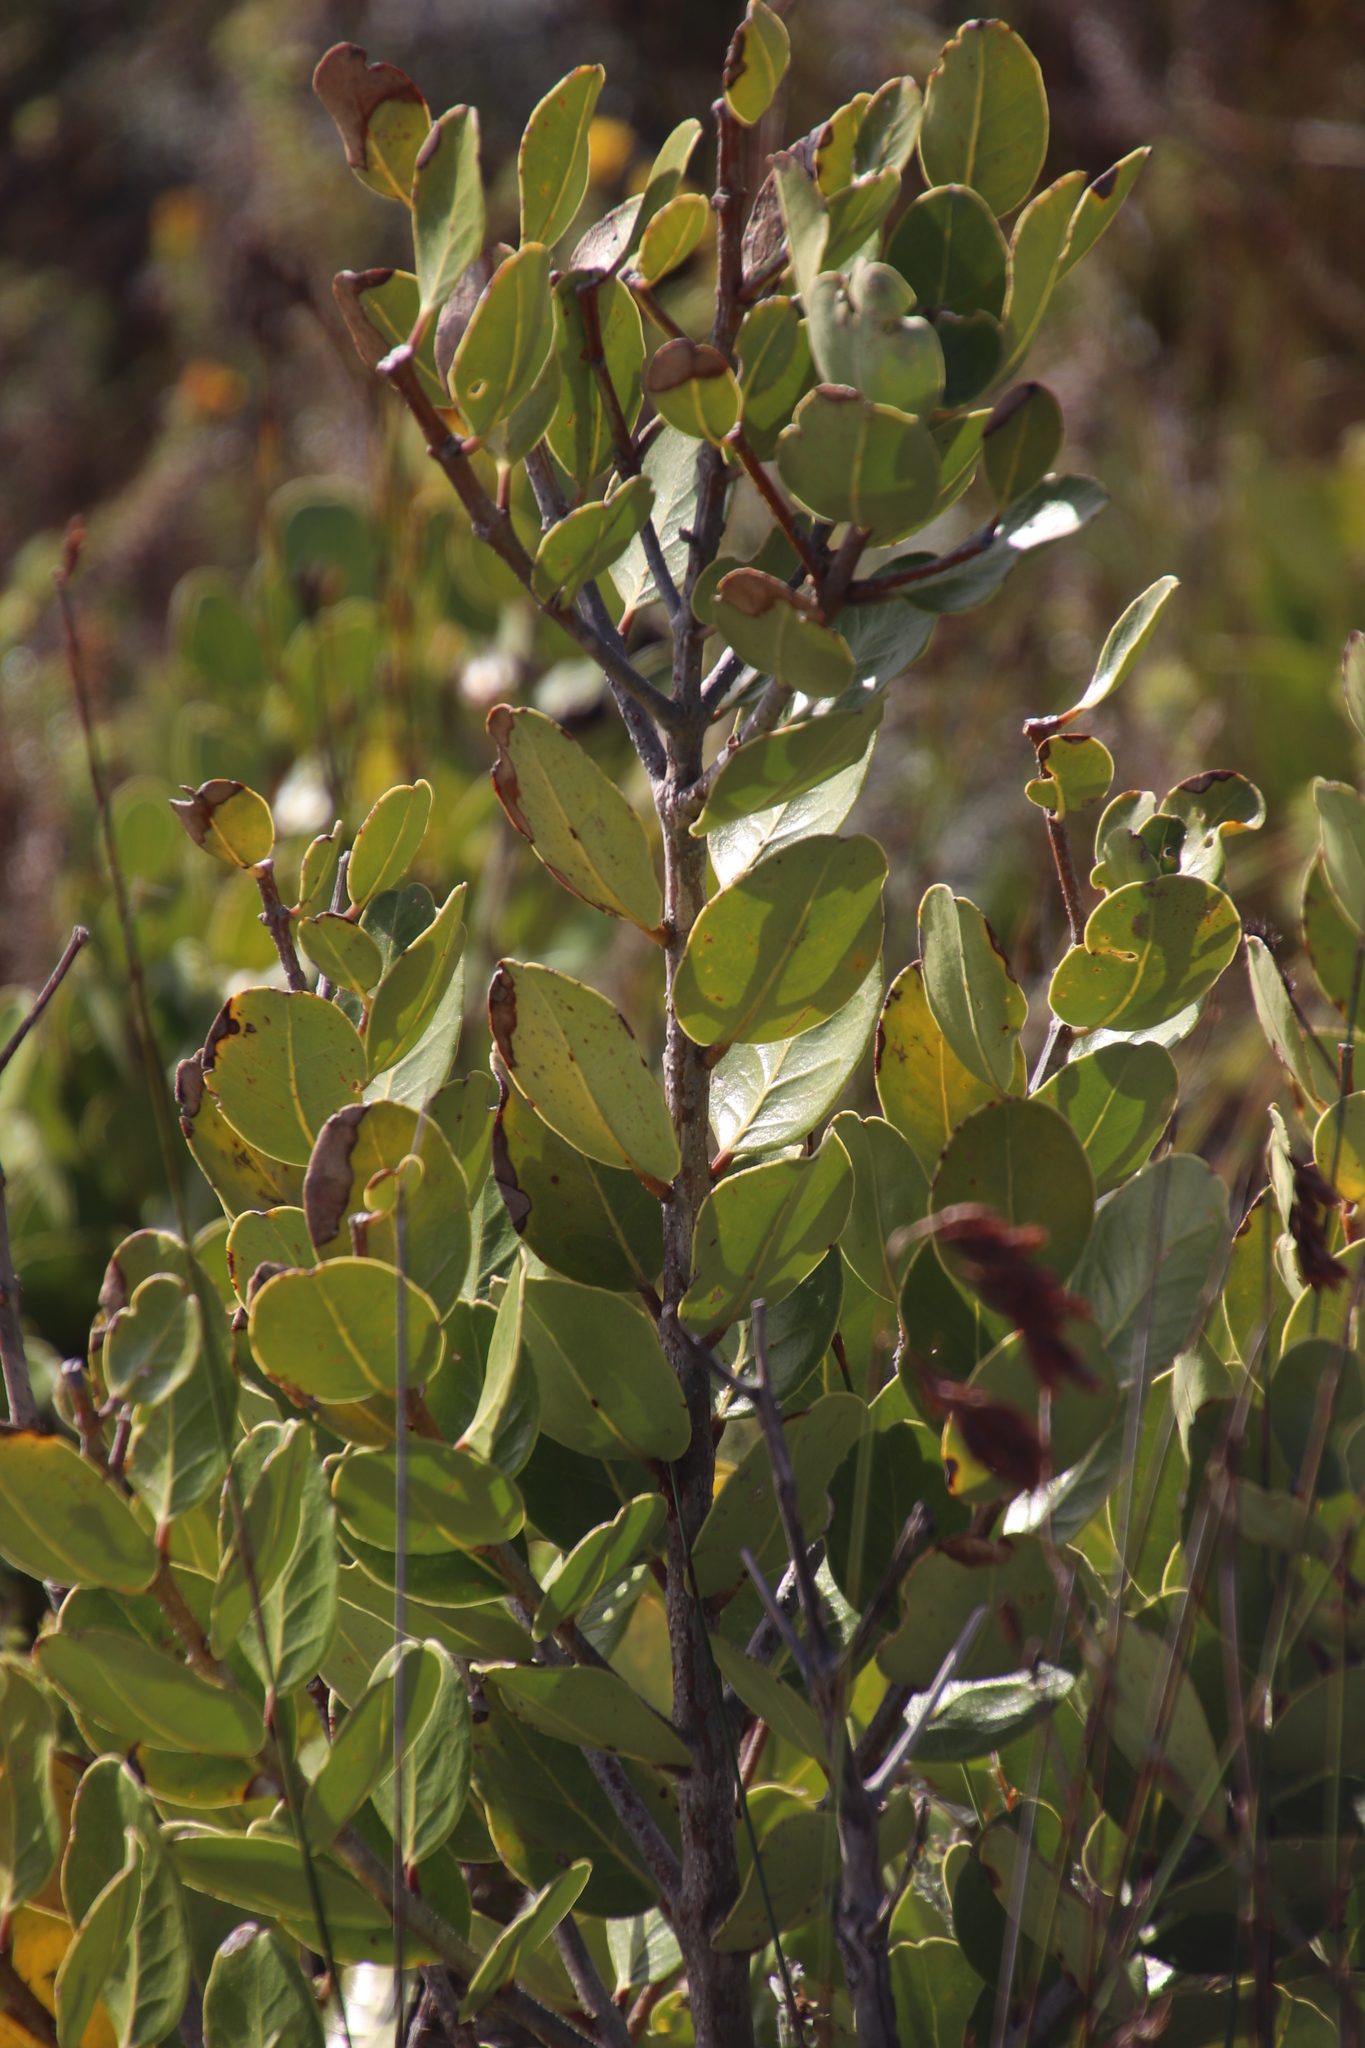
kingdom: Plantae
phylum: Tracheophyta
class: Magnoliopsida
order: Lamiales
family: Oleaceae
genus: Olea
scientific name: Olea capensis
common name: Black ironwood
